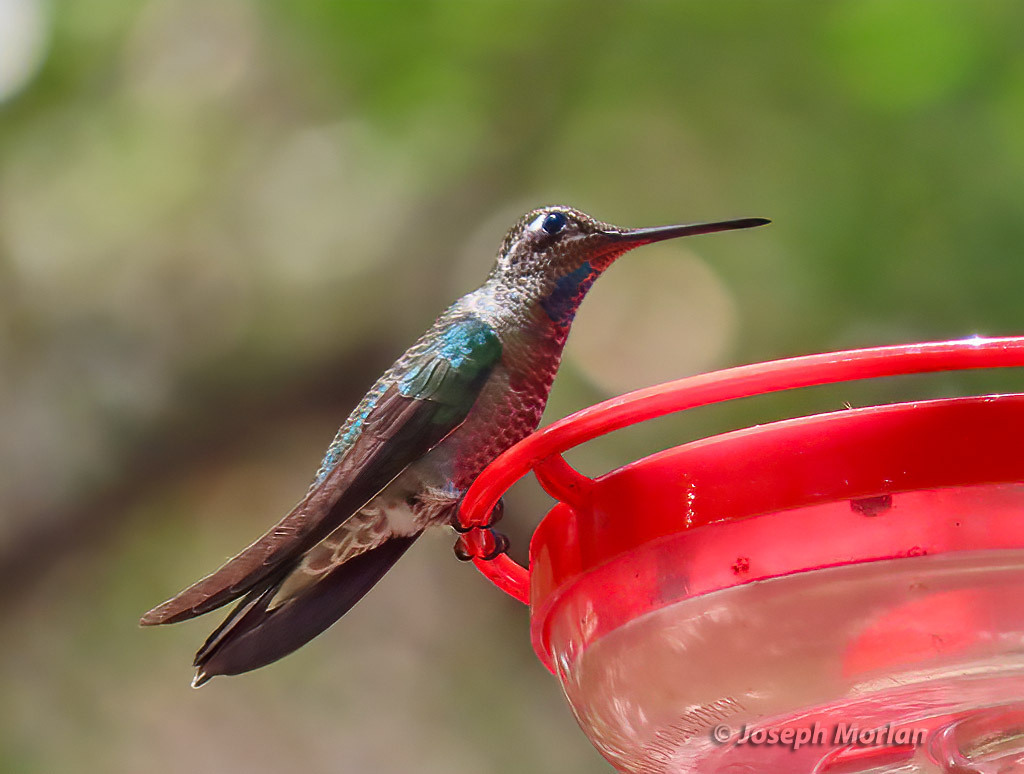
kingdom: Animalia
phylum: Chordata
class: Aves
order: Apodiformes
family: Trochilidae
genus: Eugenes
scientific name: Eugenes fulgens
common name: Magnificent hummingbird
